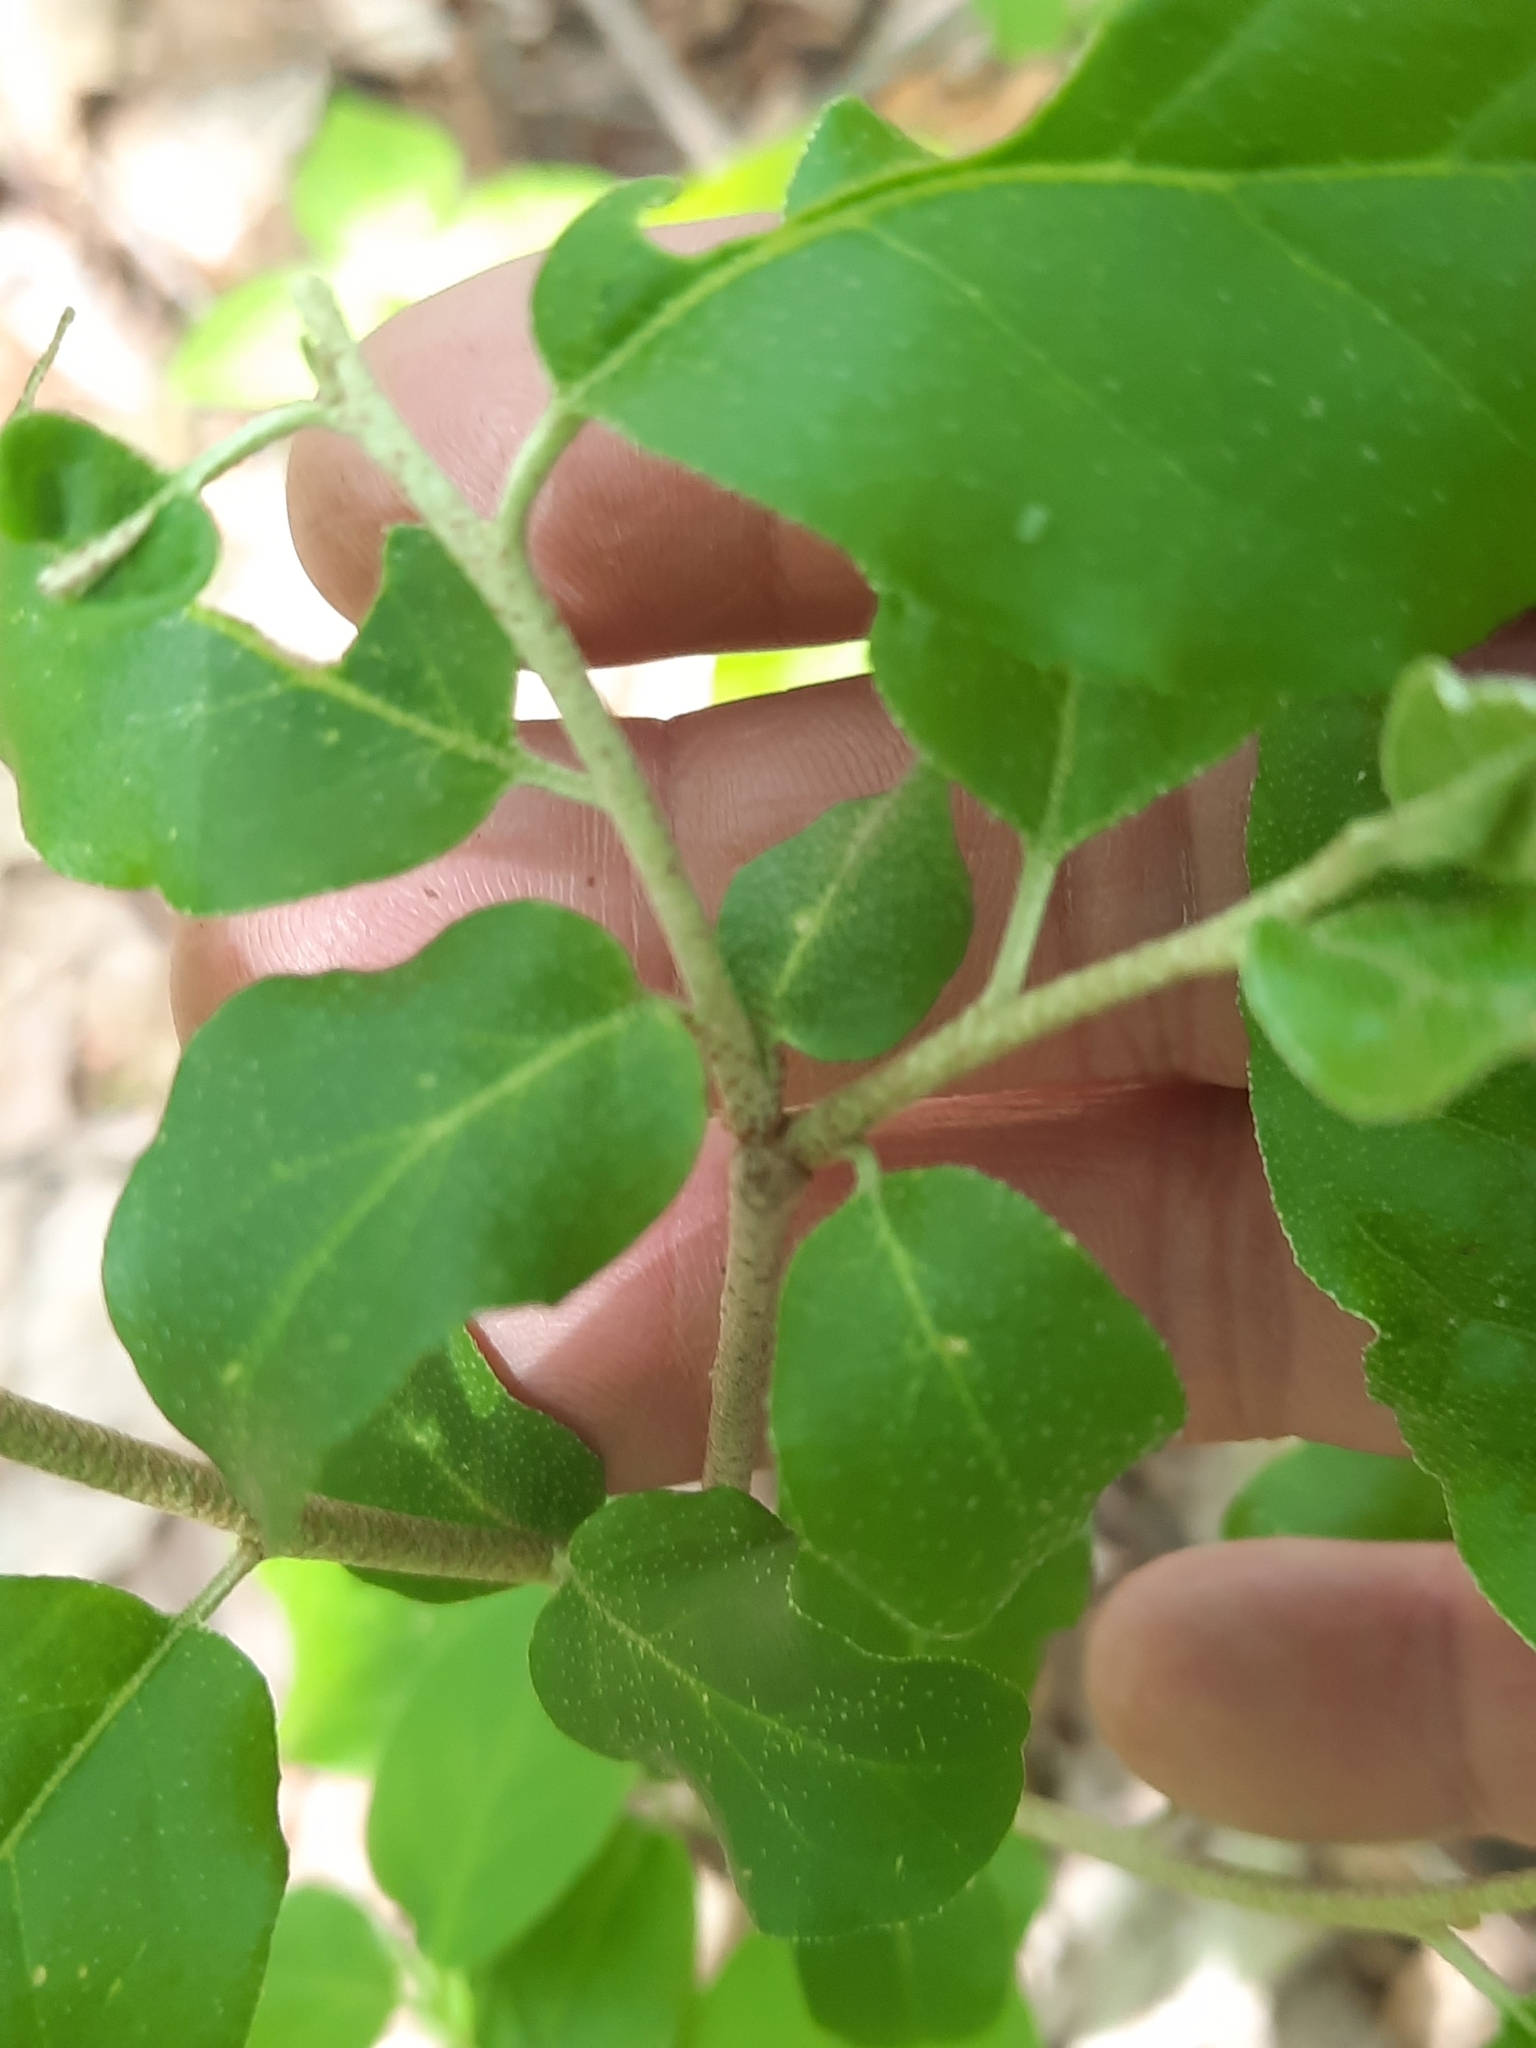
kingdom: Plantae
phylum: Tracheophyta
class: Magnoliopsida
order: Rosales
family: Elaeagnaceae
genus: Elaeagnus
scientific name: Elaeagnus umbellata
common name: Autumn olive
